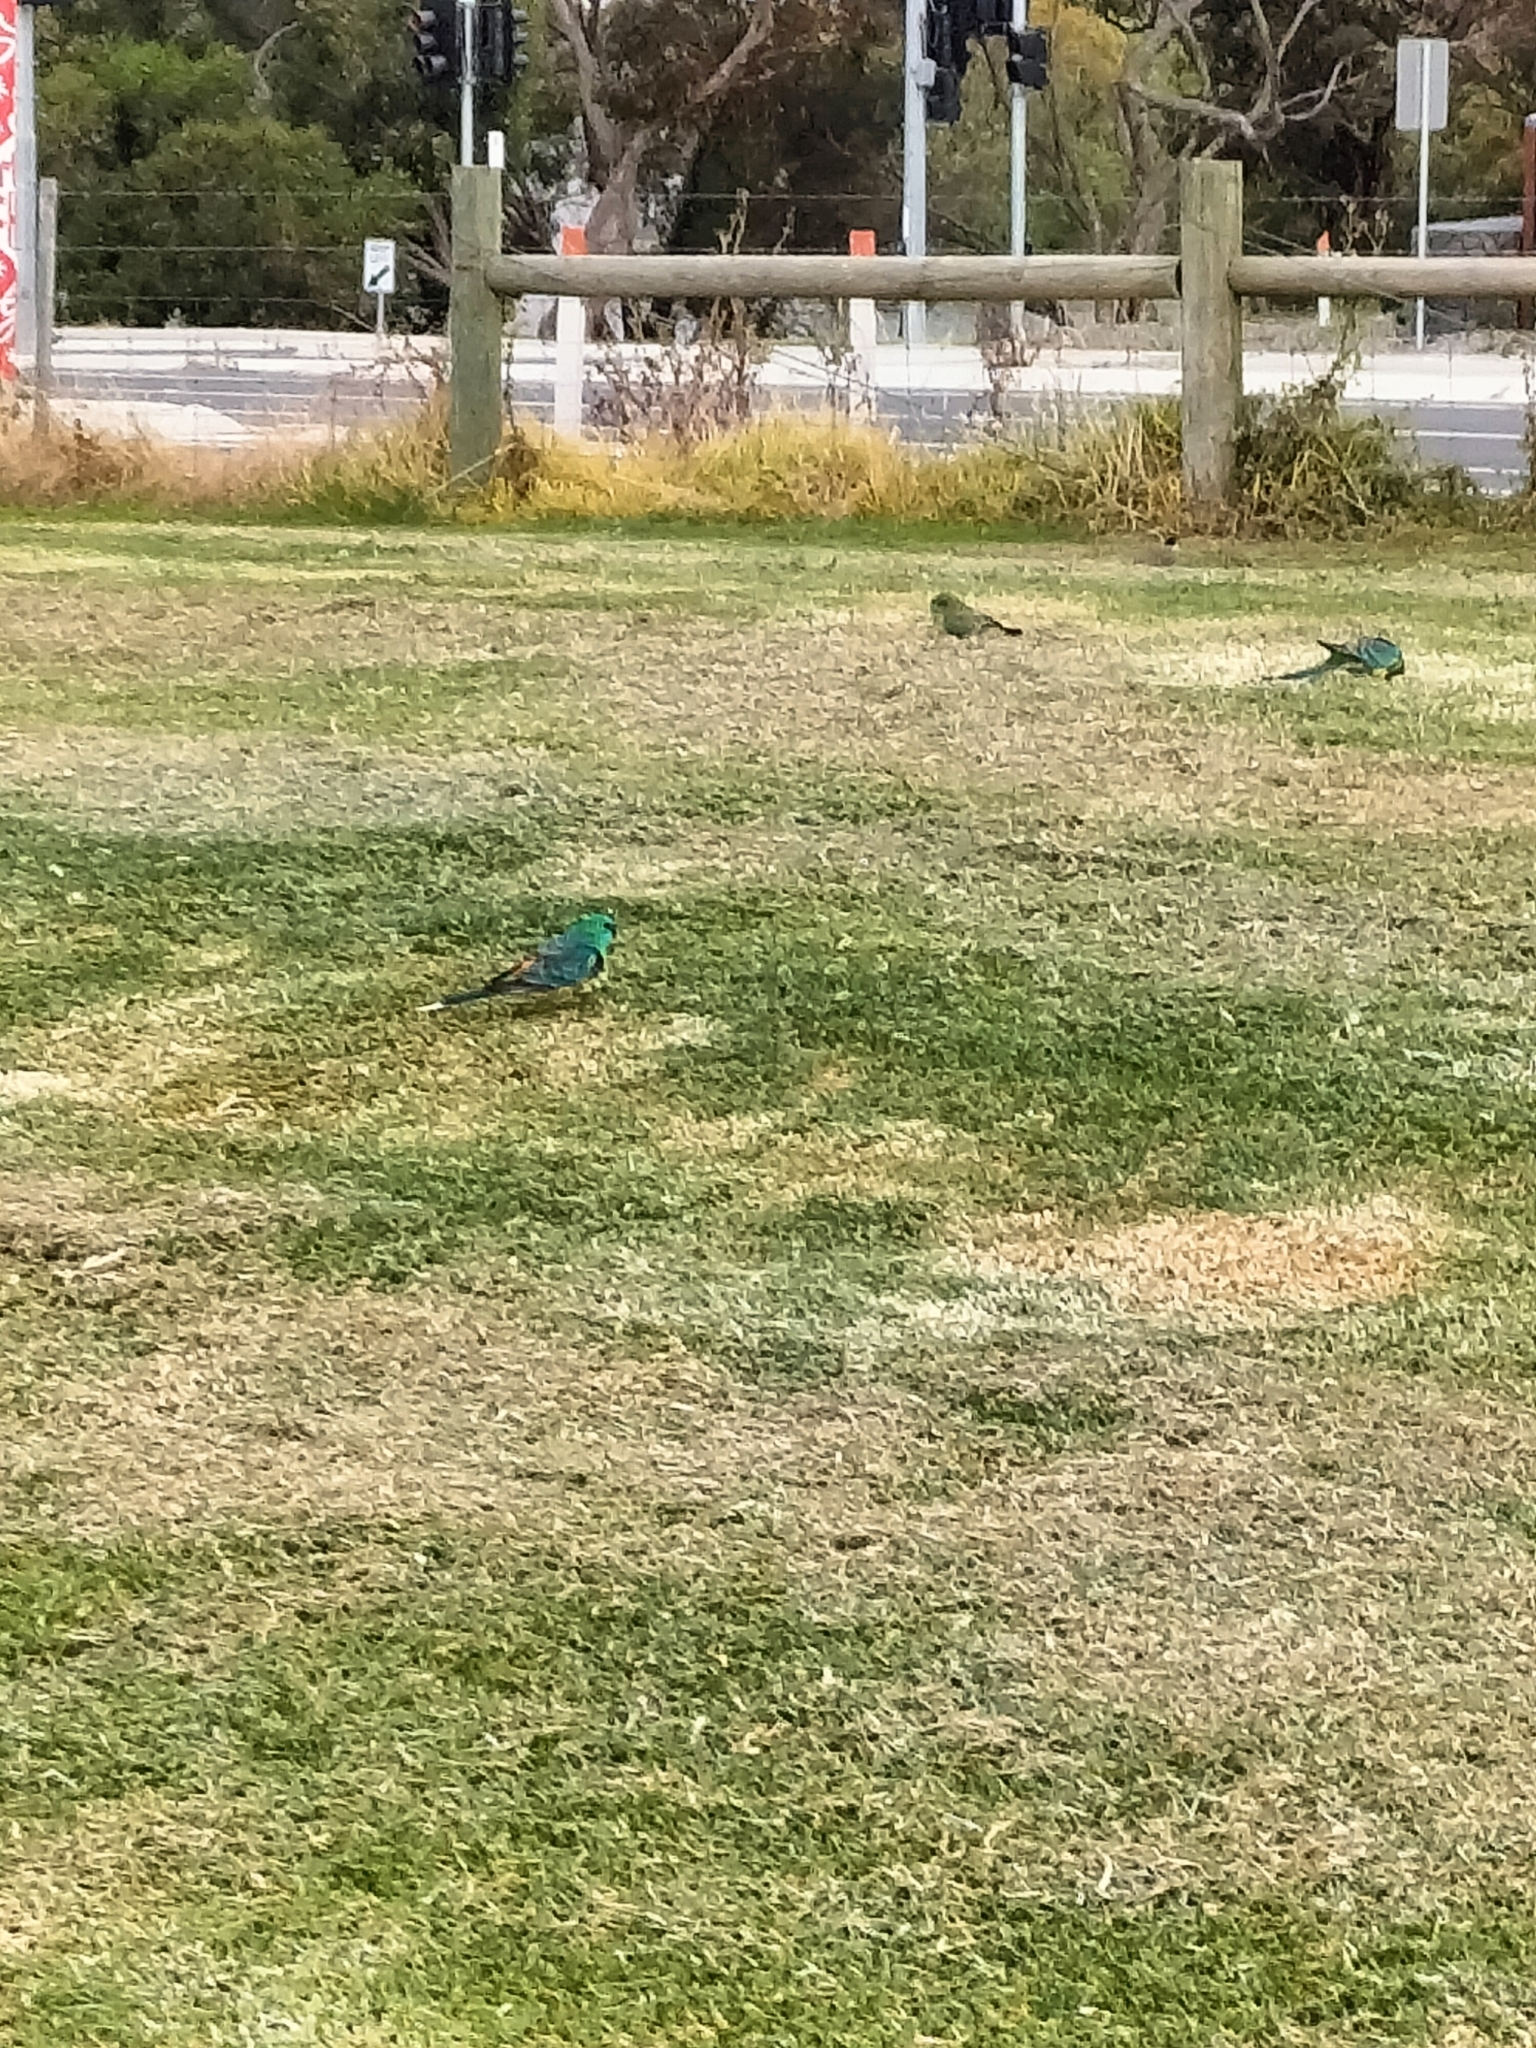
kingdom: Animalia
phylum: Chordata
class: Aves
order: Psittaciformes
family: Psittacidae
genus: Psephotus
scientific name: Psephotus haematonotus
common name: Red-rumped parrot
